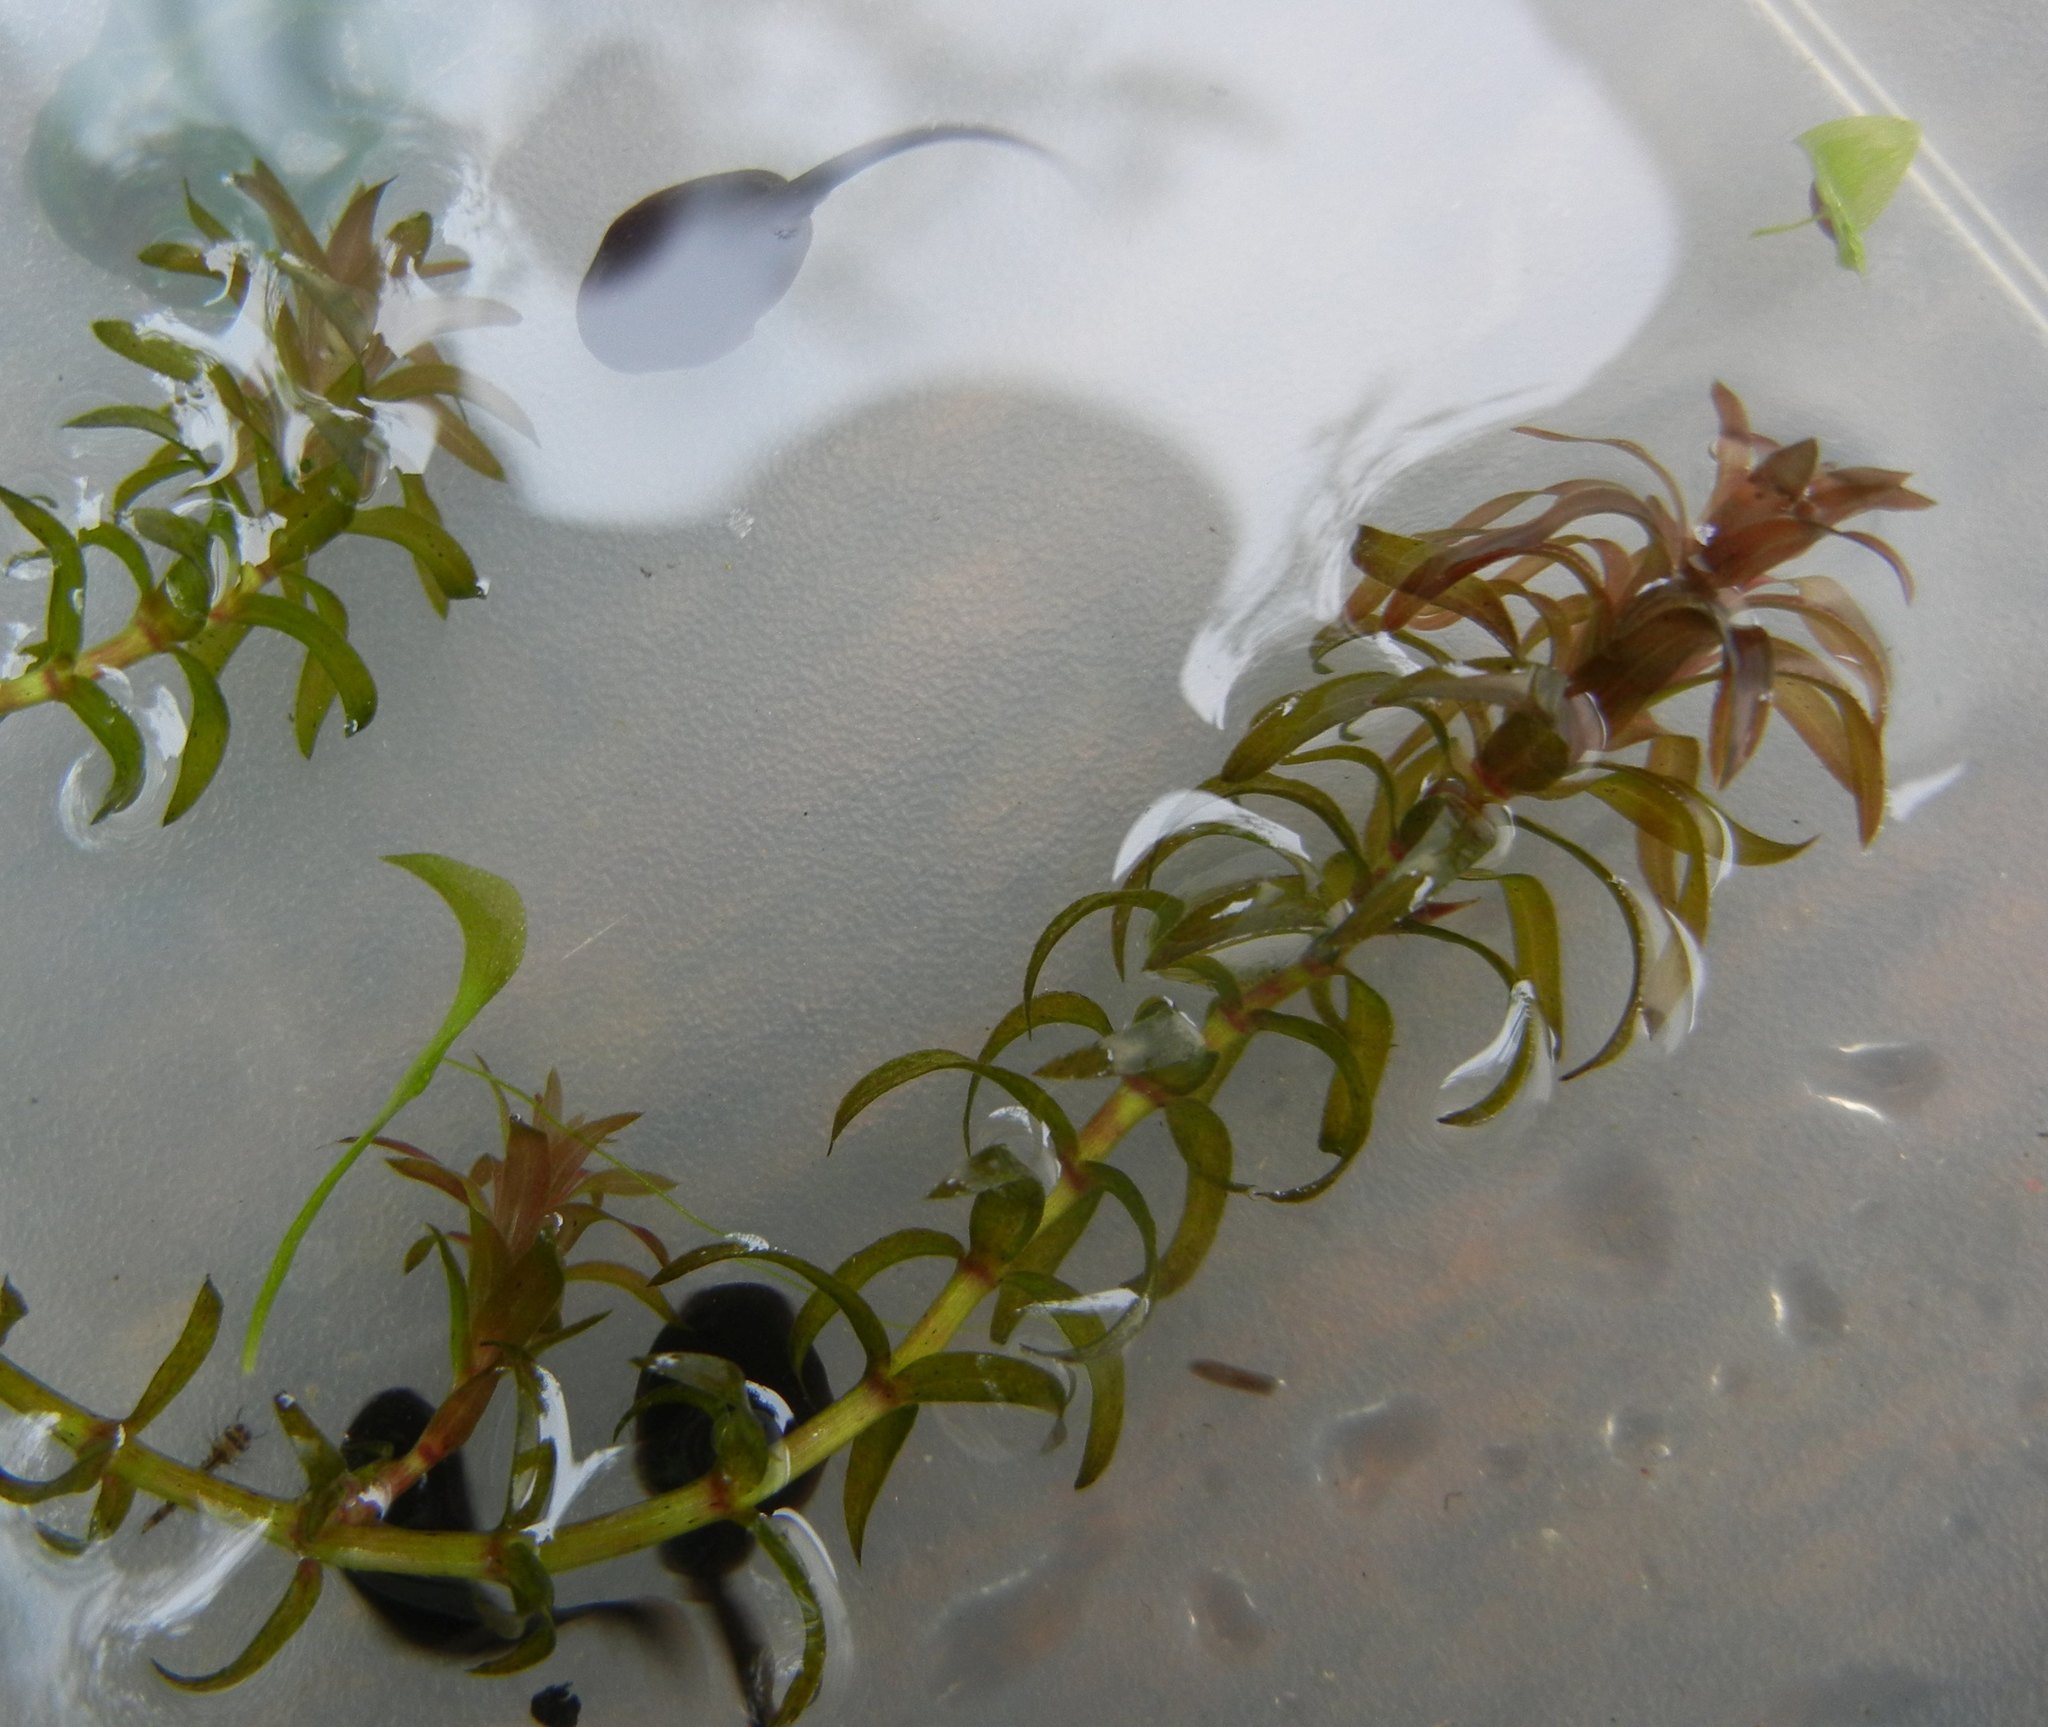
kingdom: Plantae
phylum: Tracheophyta
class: Liliopsida
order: Alismatales
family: Hydrocharitaceae
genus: Elodea
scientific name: Elodea canadensis
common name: Canadian waterweed
